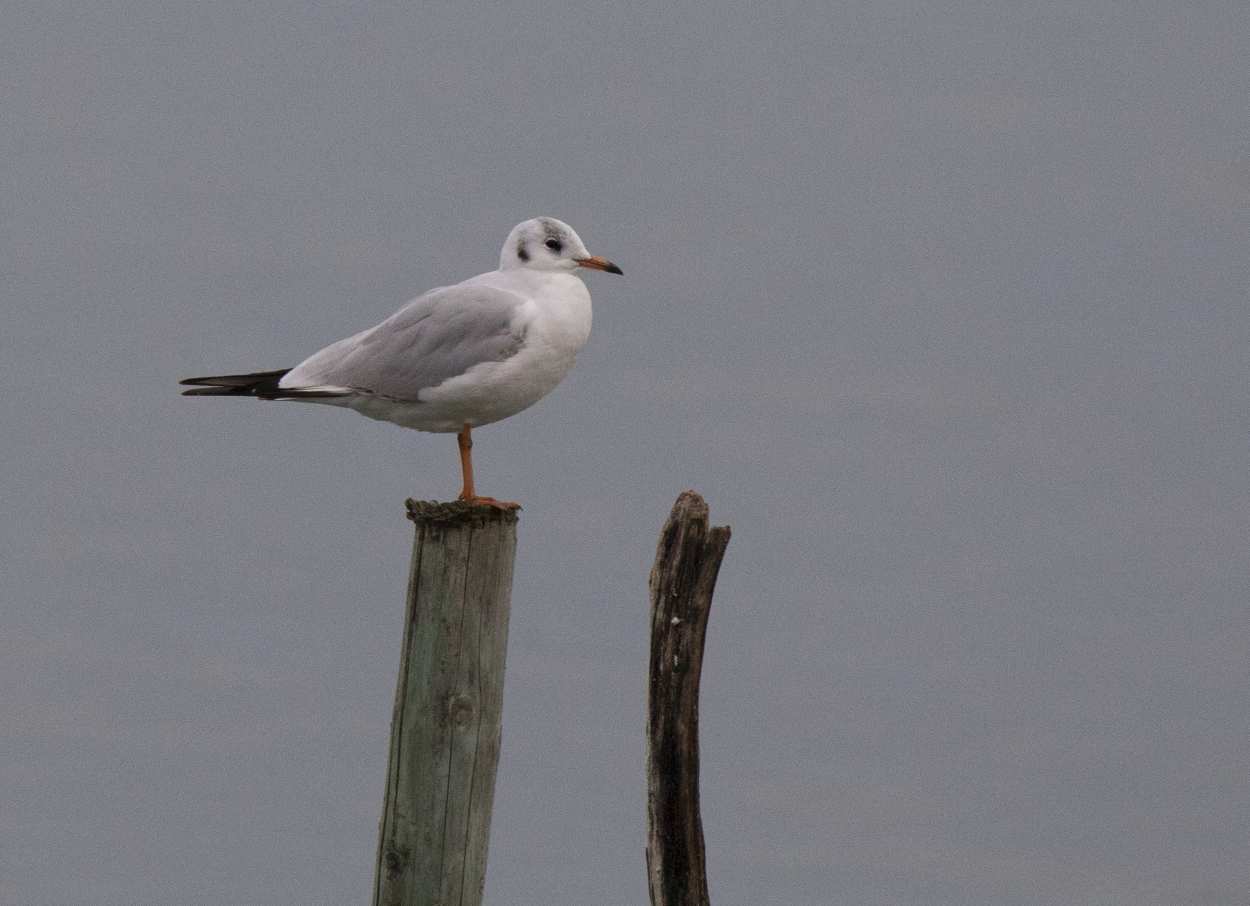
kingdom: Animalia
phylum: Chordata
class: Aves
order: Charadriiformes
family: Laridae
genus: Chroicocephalus
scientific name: Chroicocephalus ridibundus
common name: Black-headed gull
